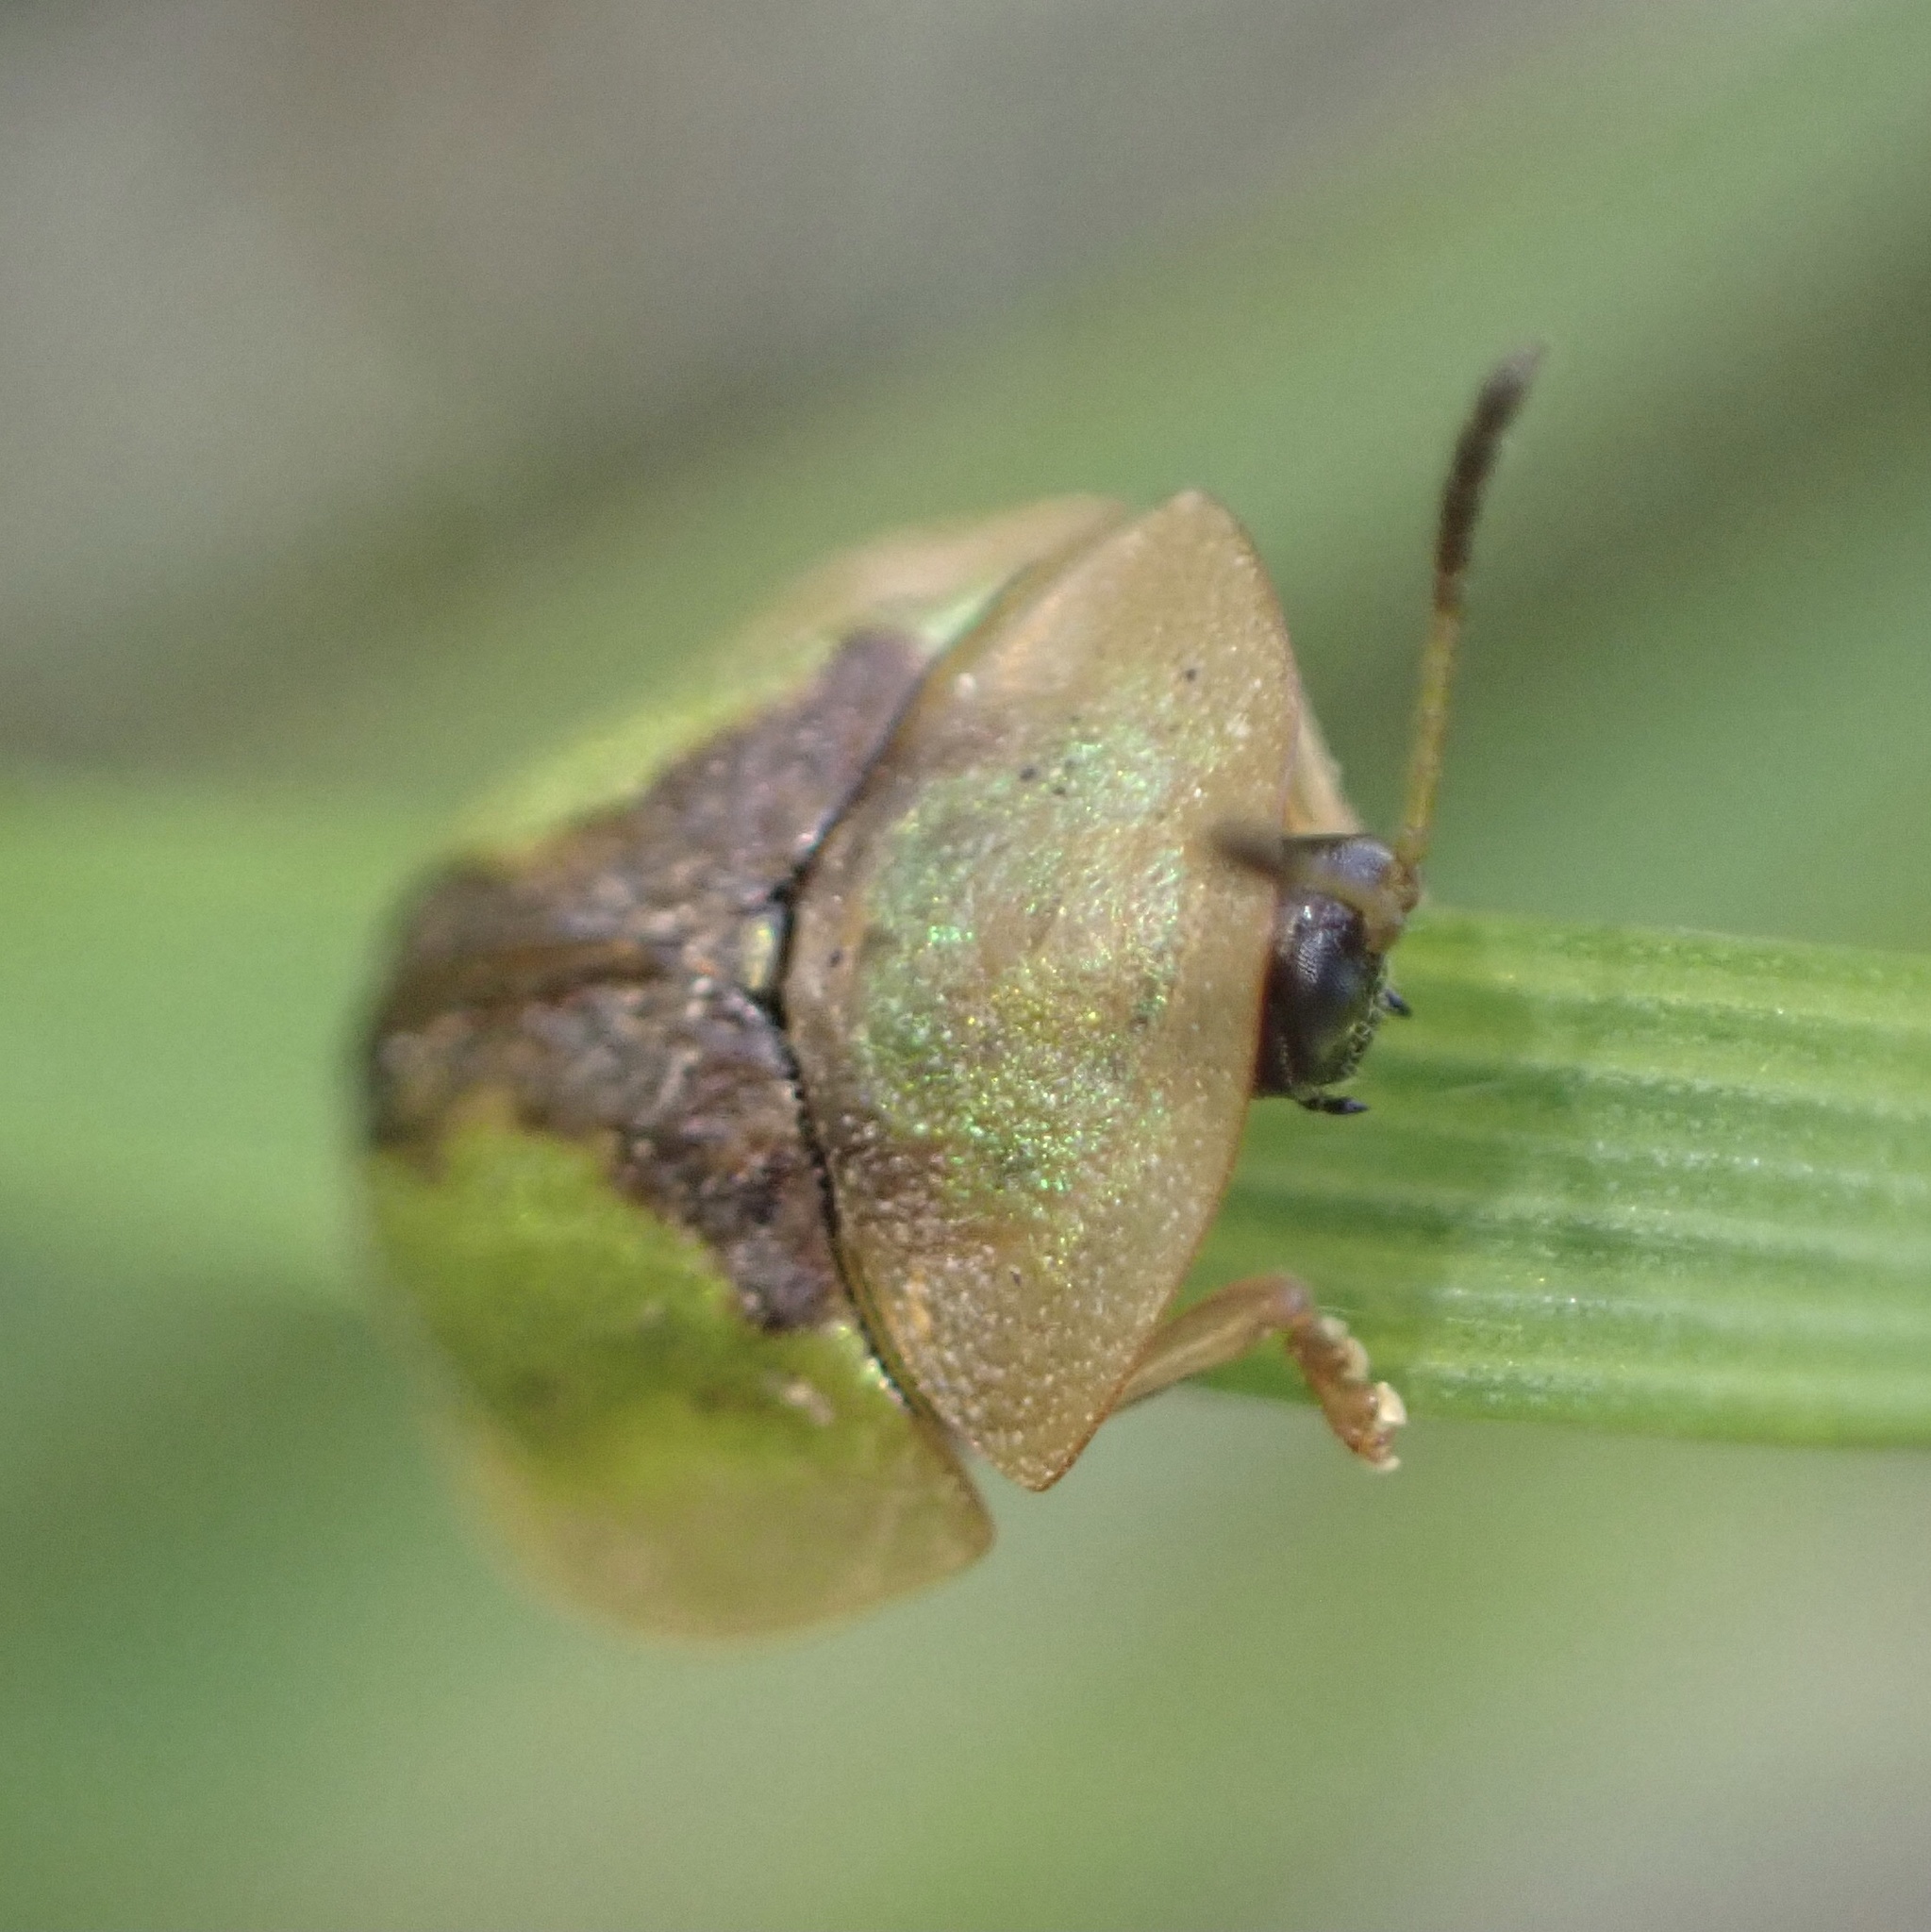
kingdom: Animalia
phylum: Arthropoda
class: Insecta
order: Coleoptera
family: Chrysomelidae
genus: Cassida
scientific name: Cassida vibex
